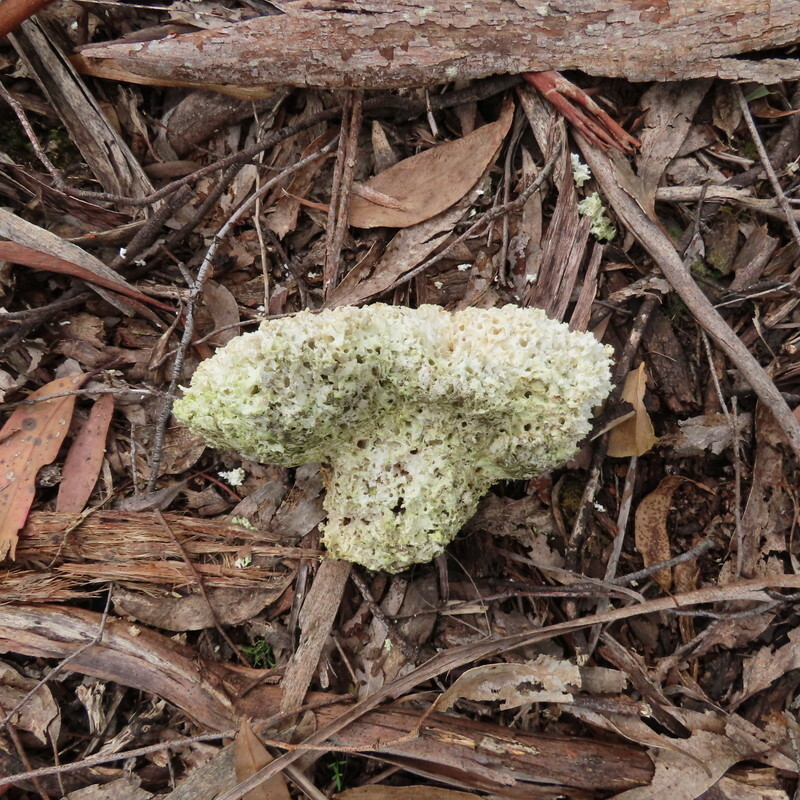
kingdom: Fungi
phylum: Basidiomycota
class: Agaricomycetes
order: Polyporales
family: Laetiporaceae
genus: Laetiporus
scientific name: Laetiporus portentosus
